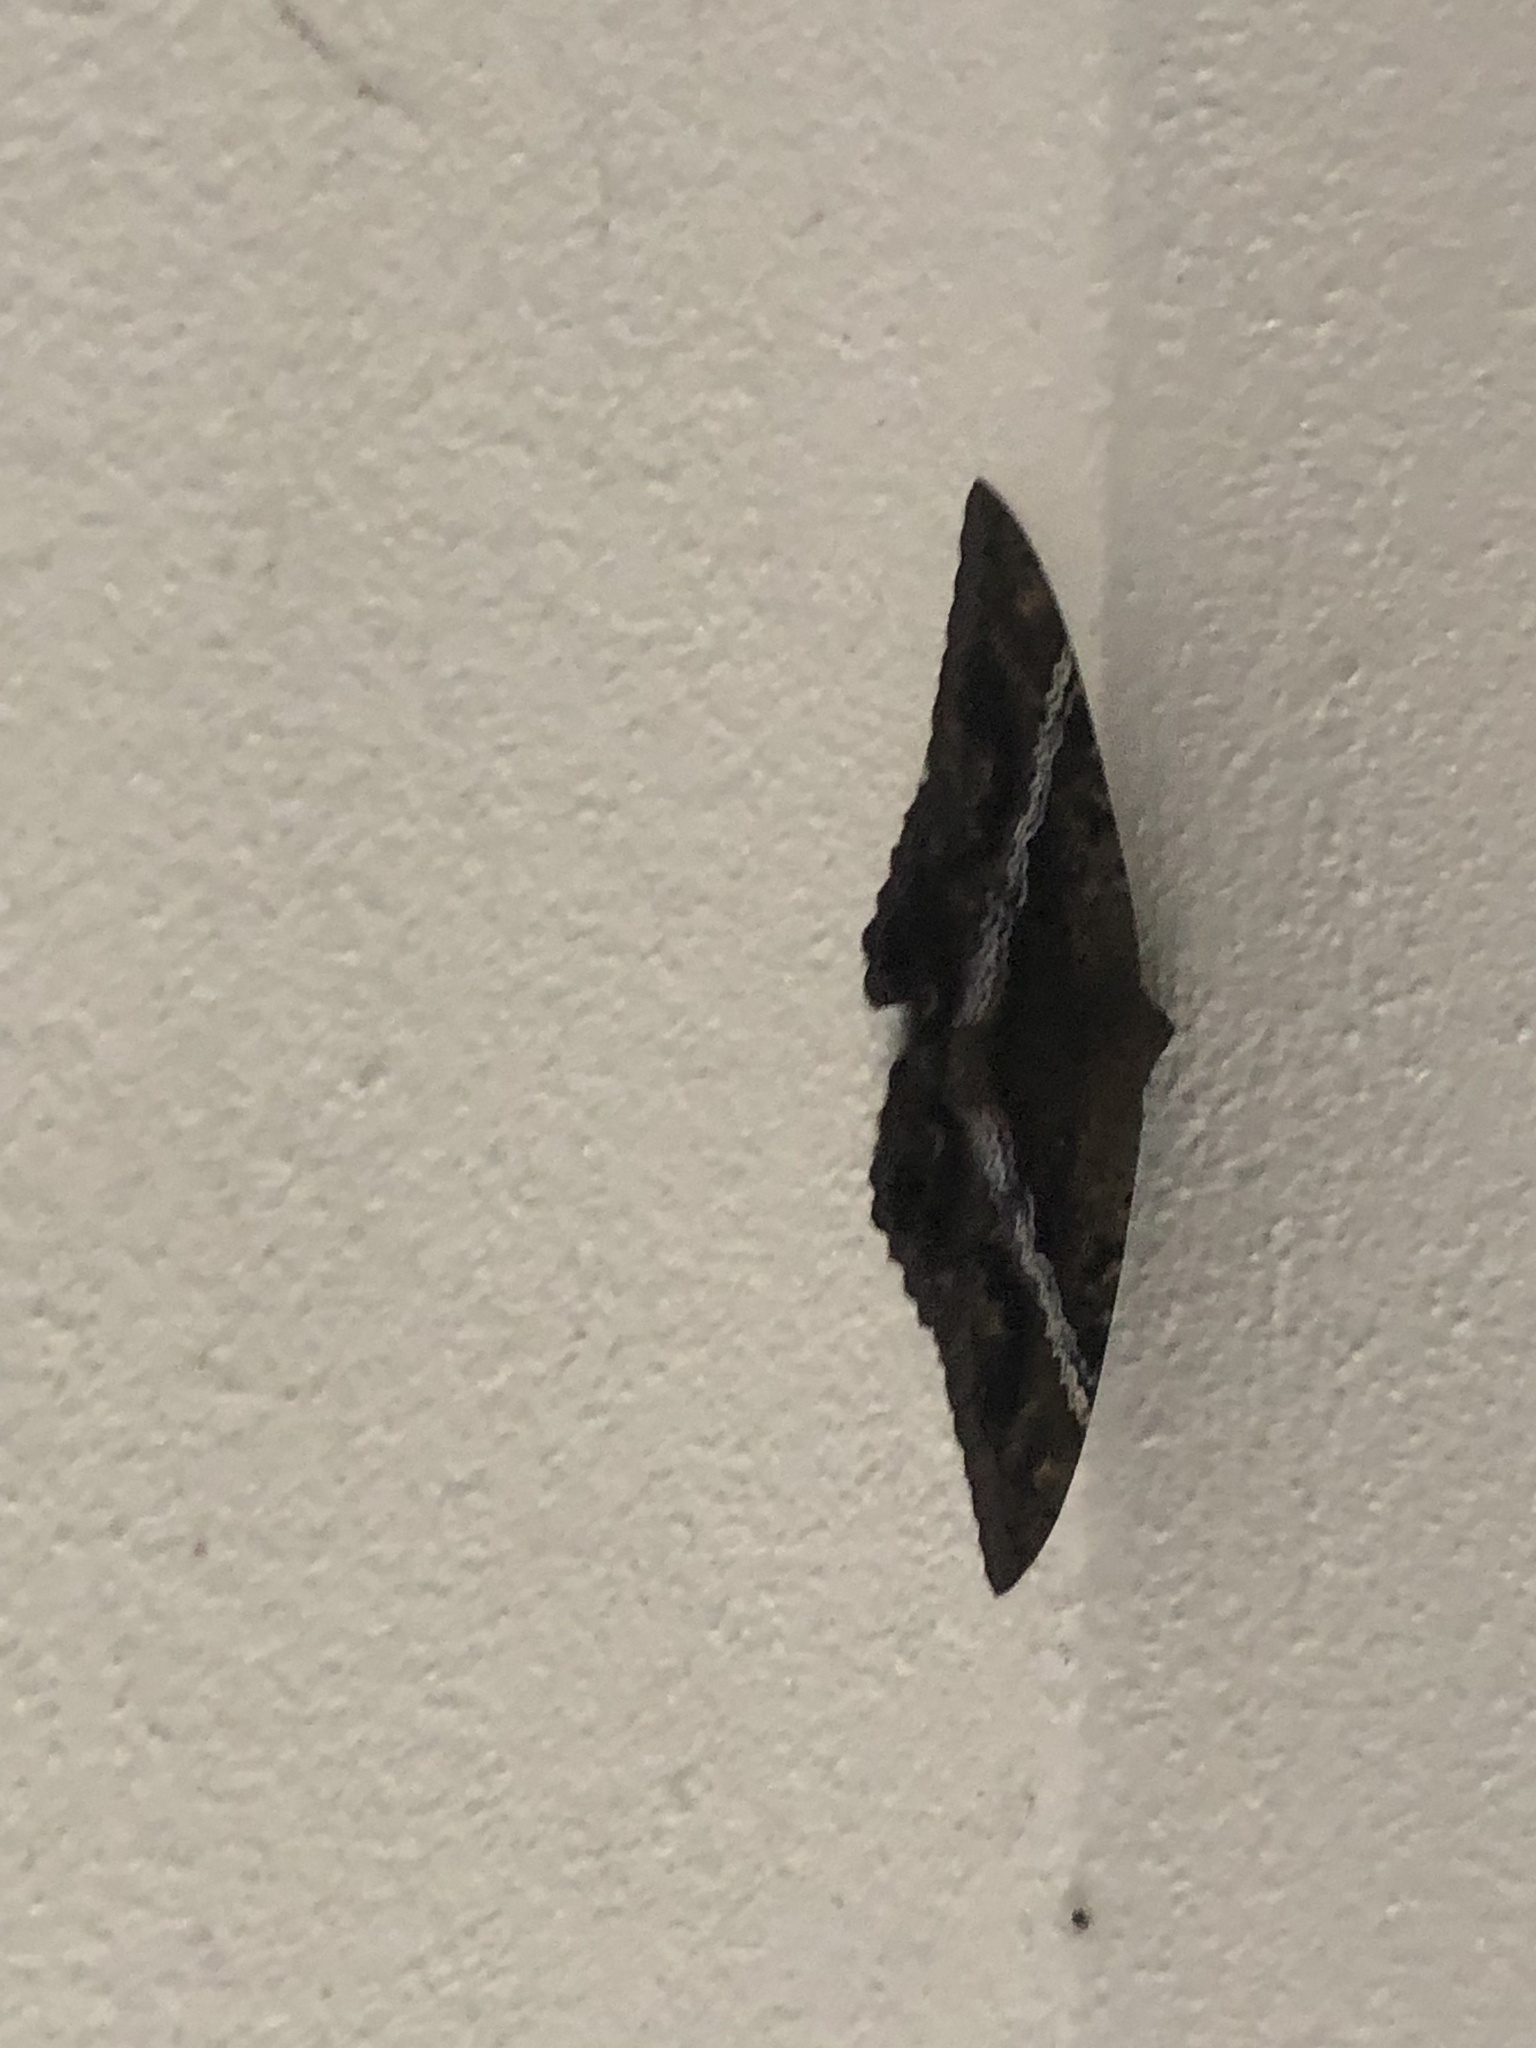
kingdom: Animalia
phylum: Arthropoda
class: Insecta
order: Lepidoptera
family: Erebidae
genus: Ascalapha
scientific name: Ascalapha odorata
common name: Black witch
